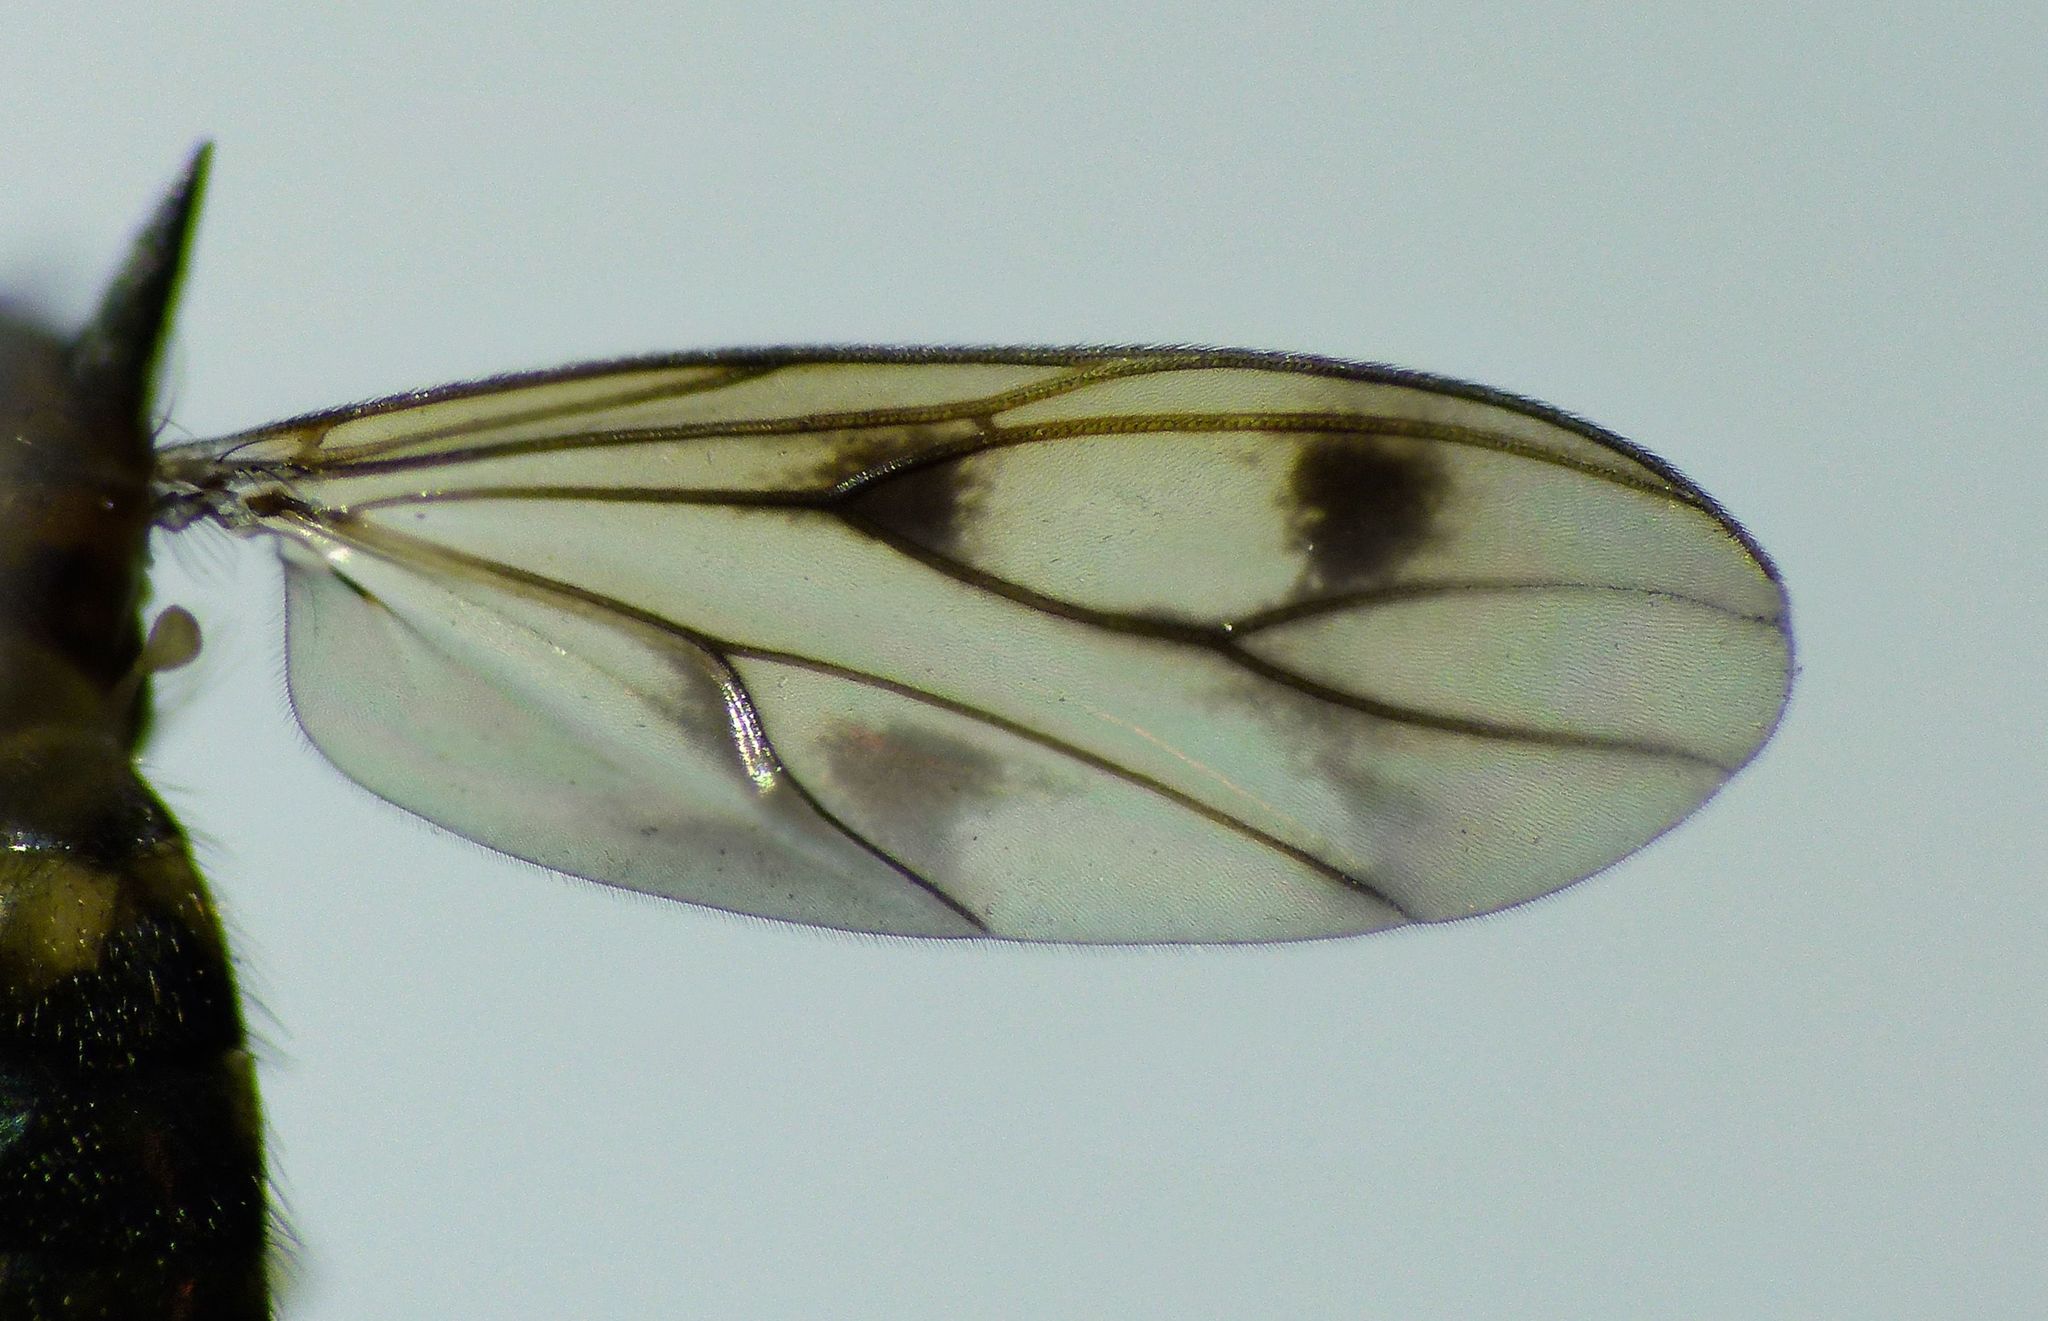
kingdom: Animalia
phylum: Arthropoda
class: Insecta
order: Diptera
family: Mycetophilidae
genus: Anomalomyia
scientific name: Anomalomyia guttata
